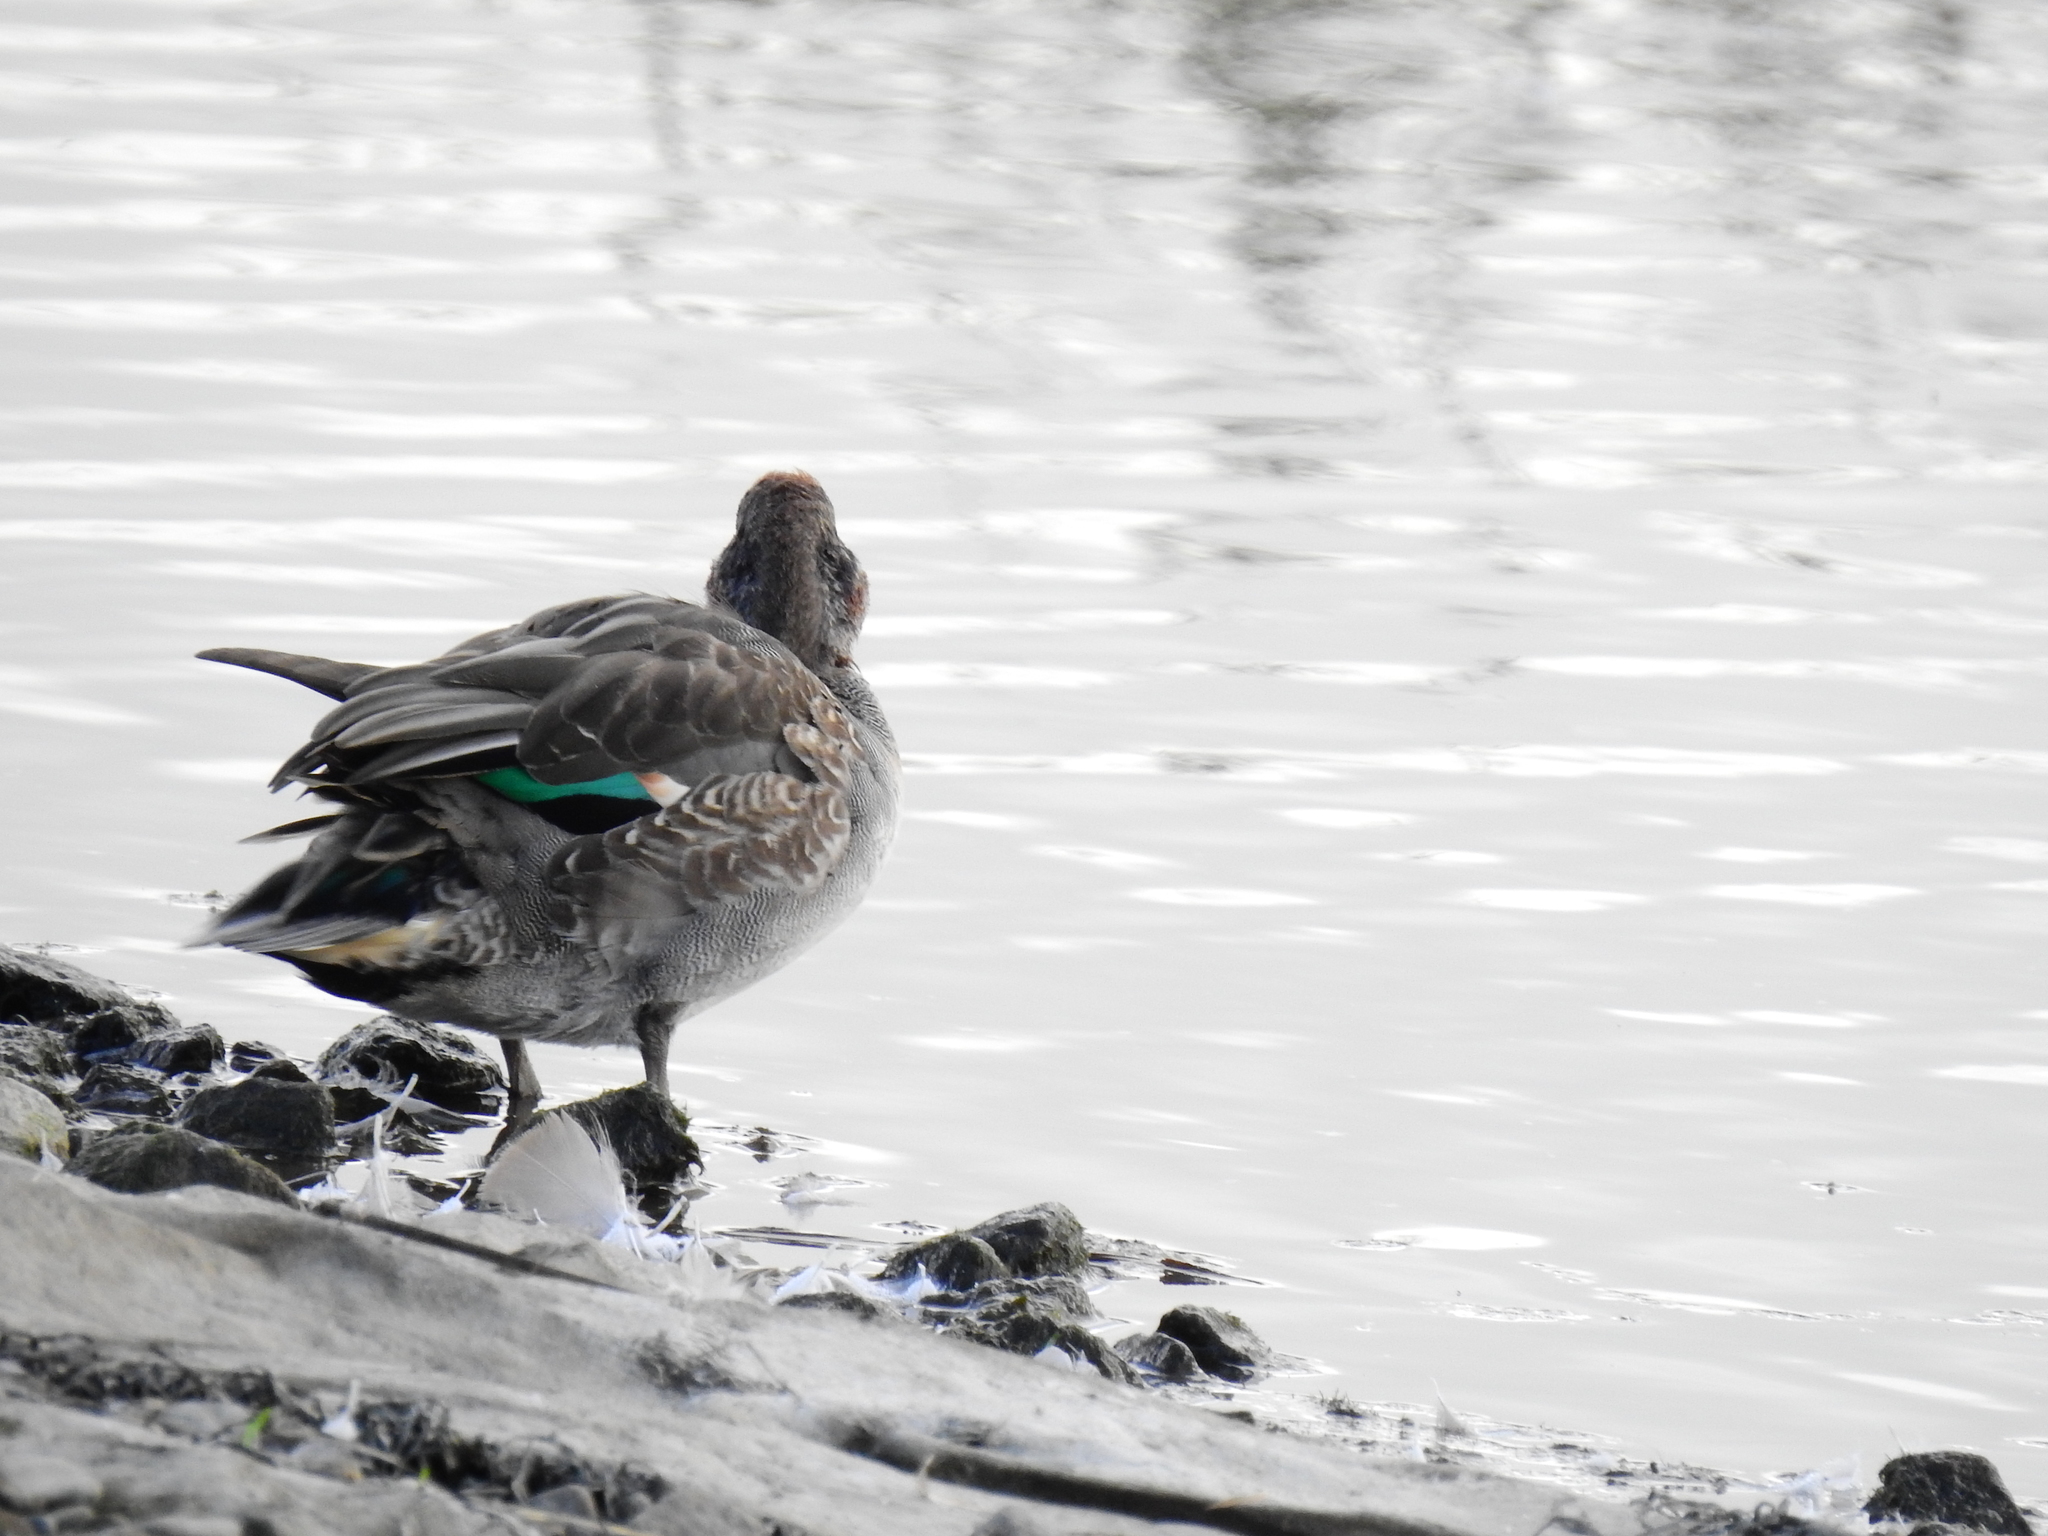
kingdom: Animalia
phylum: Chordata
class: Aves
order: Anseriformes
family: Anatidae
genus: Anas
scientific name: Anas crecca
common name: Eurasian teal
